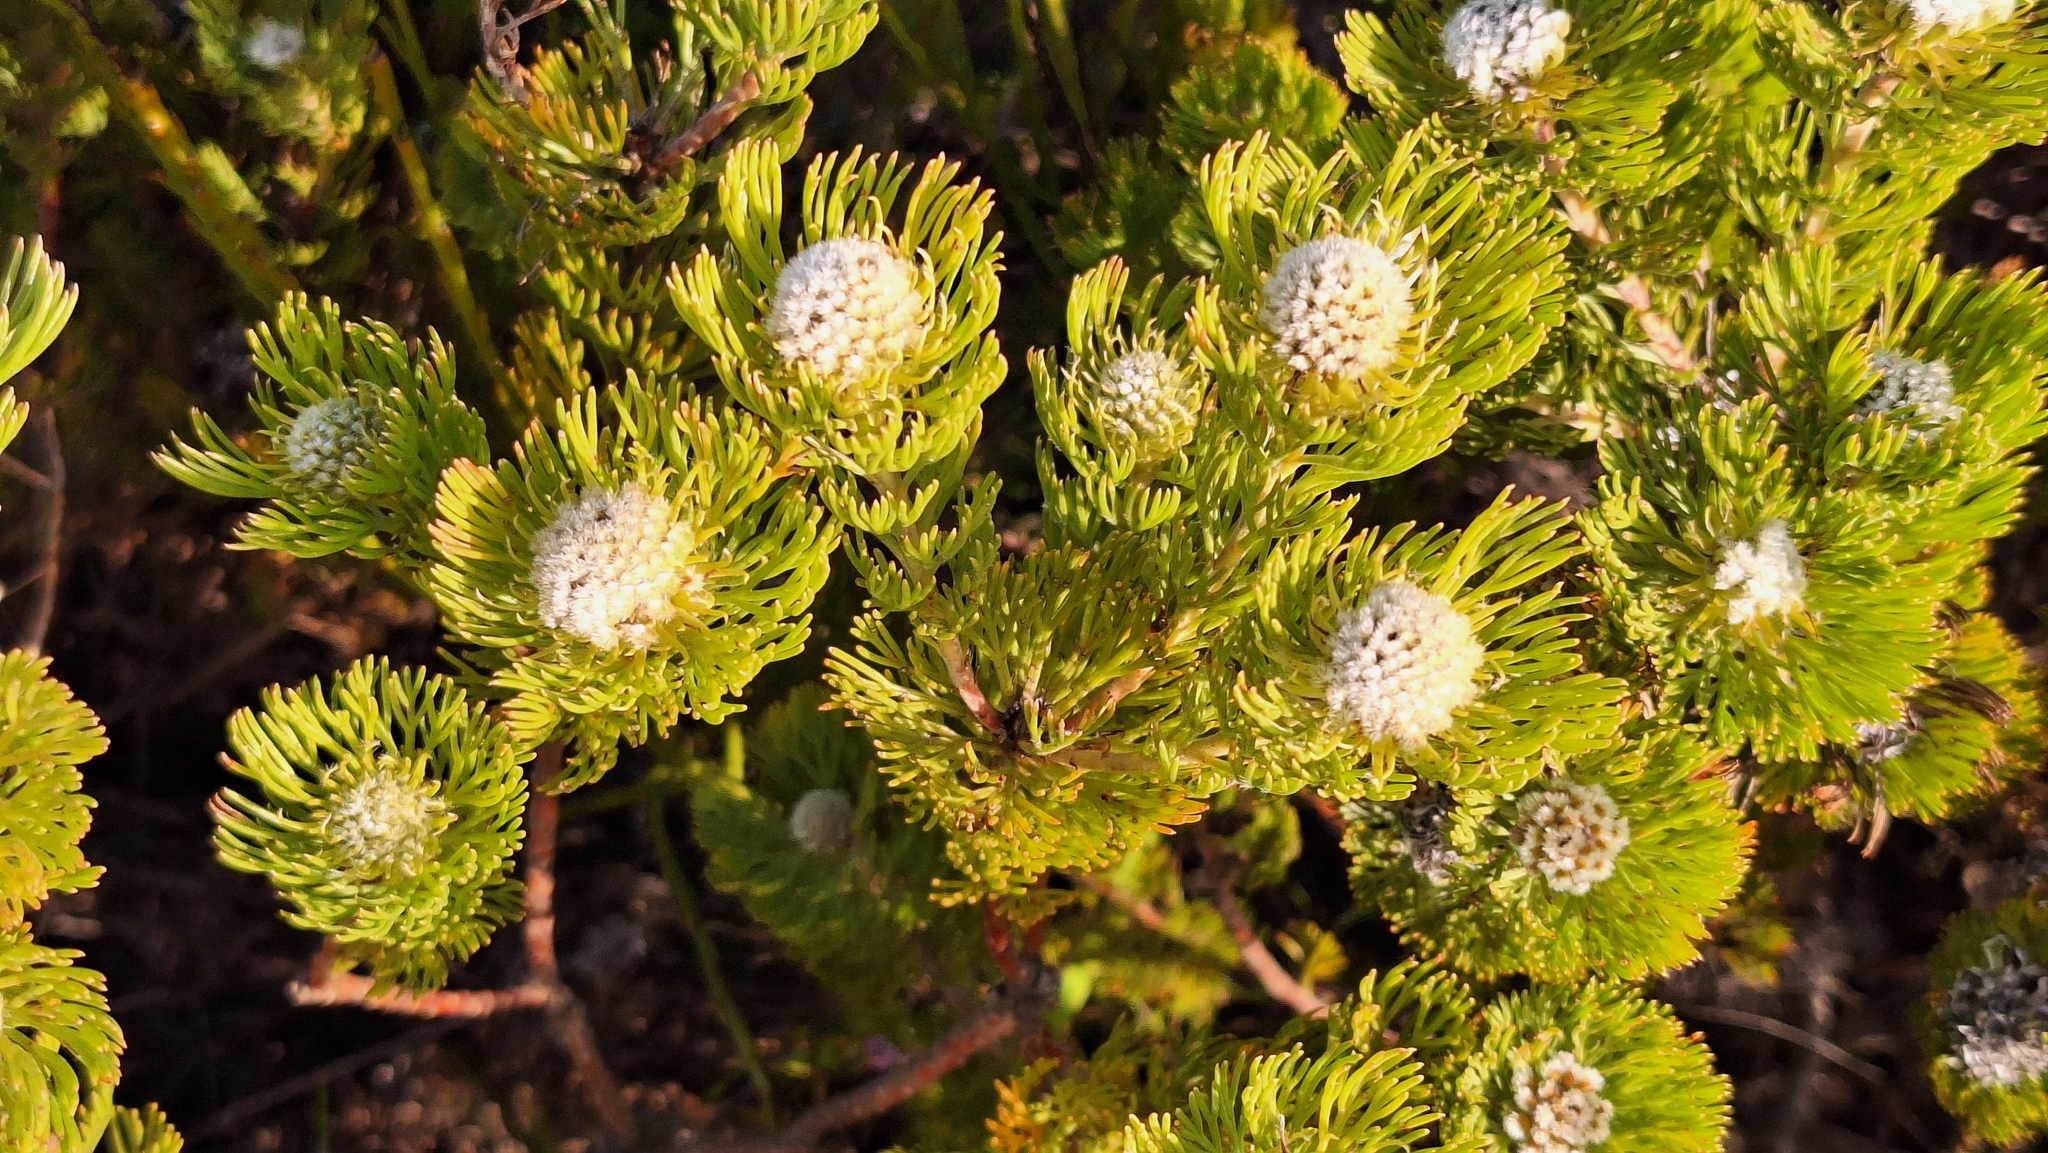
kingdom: Plantae
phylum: Tracheophyta
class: Magnoliopsida
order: Proteales
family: Proteaceae
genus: Serruria
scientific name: Serruria villosa
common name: Golden spiderhead
